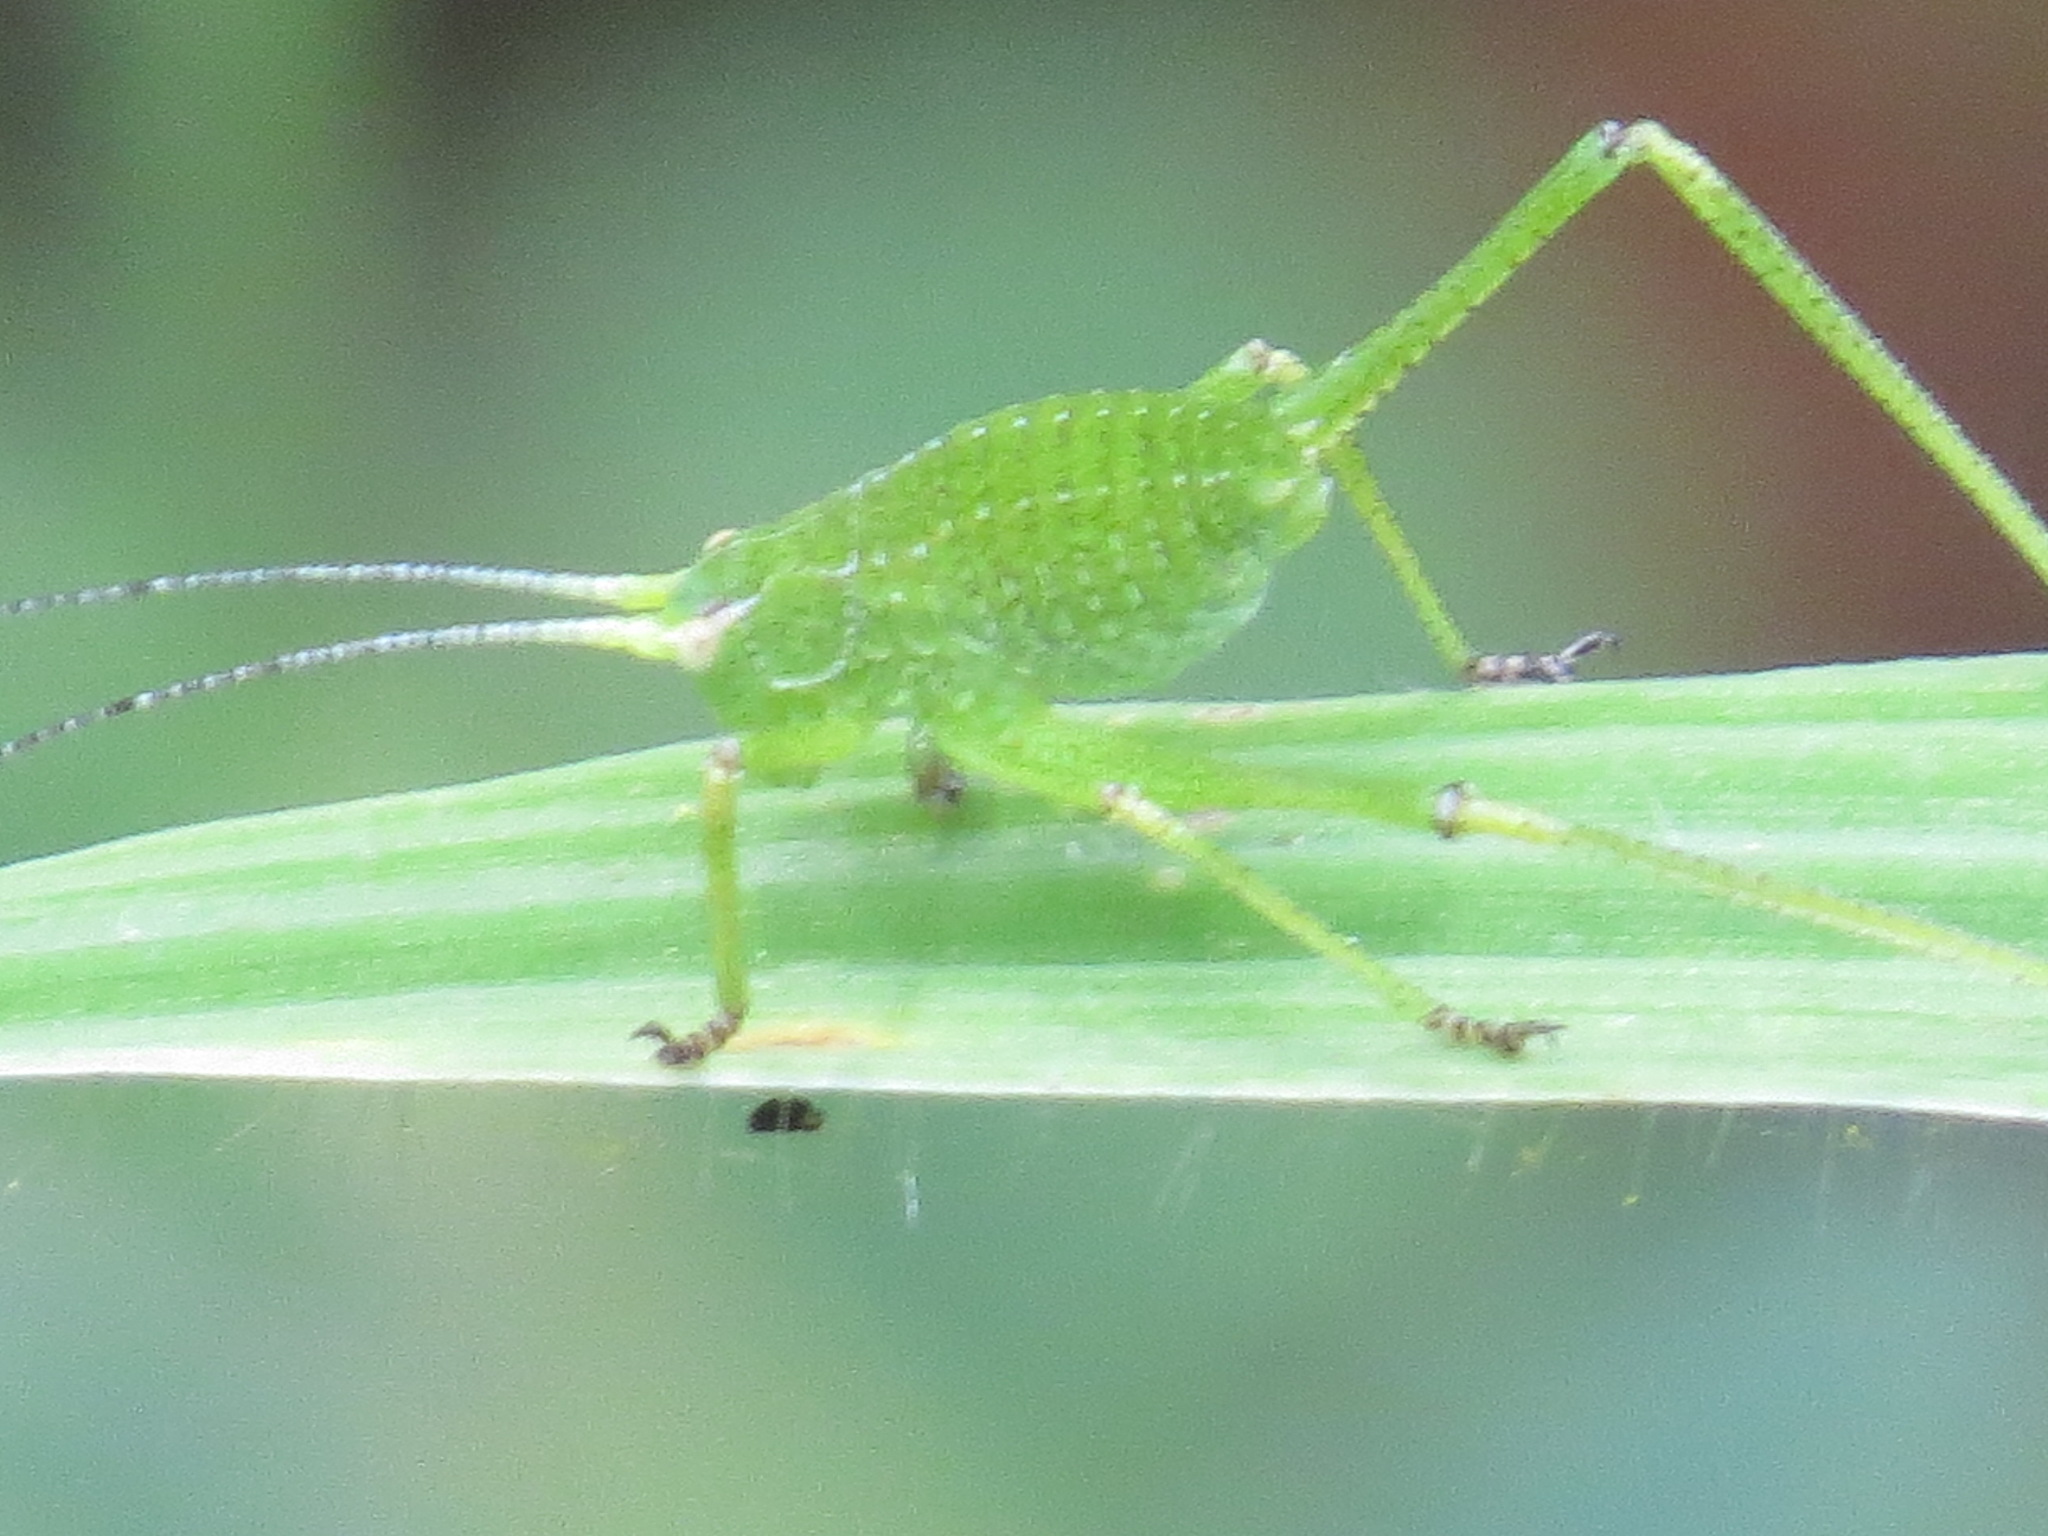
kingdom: Animalia
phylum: Arthropoda
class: Insecta
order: Orthoptera
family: Tettigoniidae
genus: Platylyra
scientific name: Platylyra californica
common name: Chaparral false katydid
